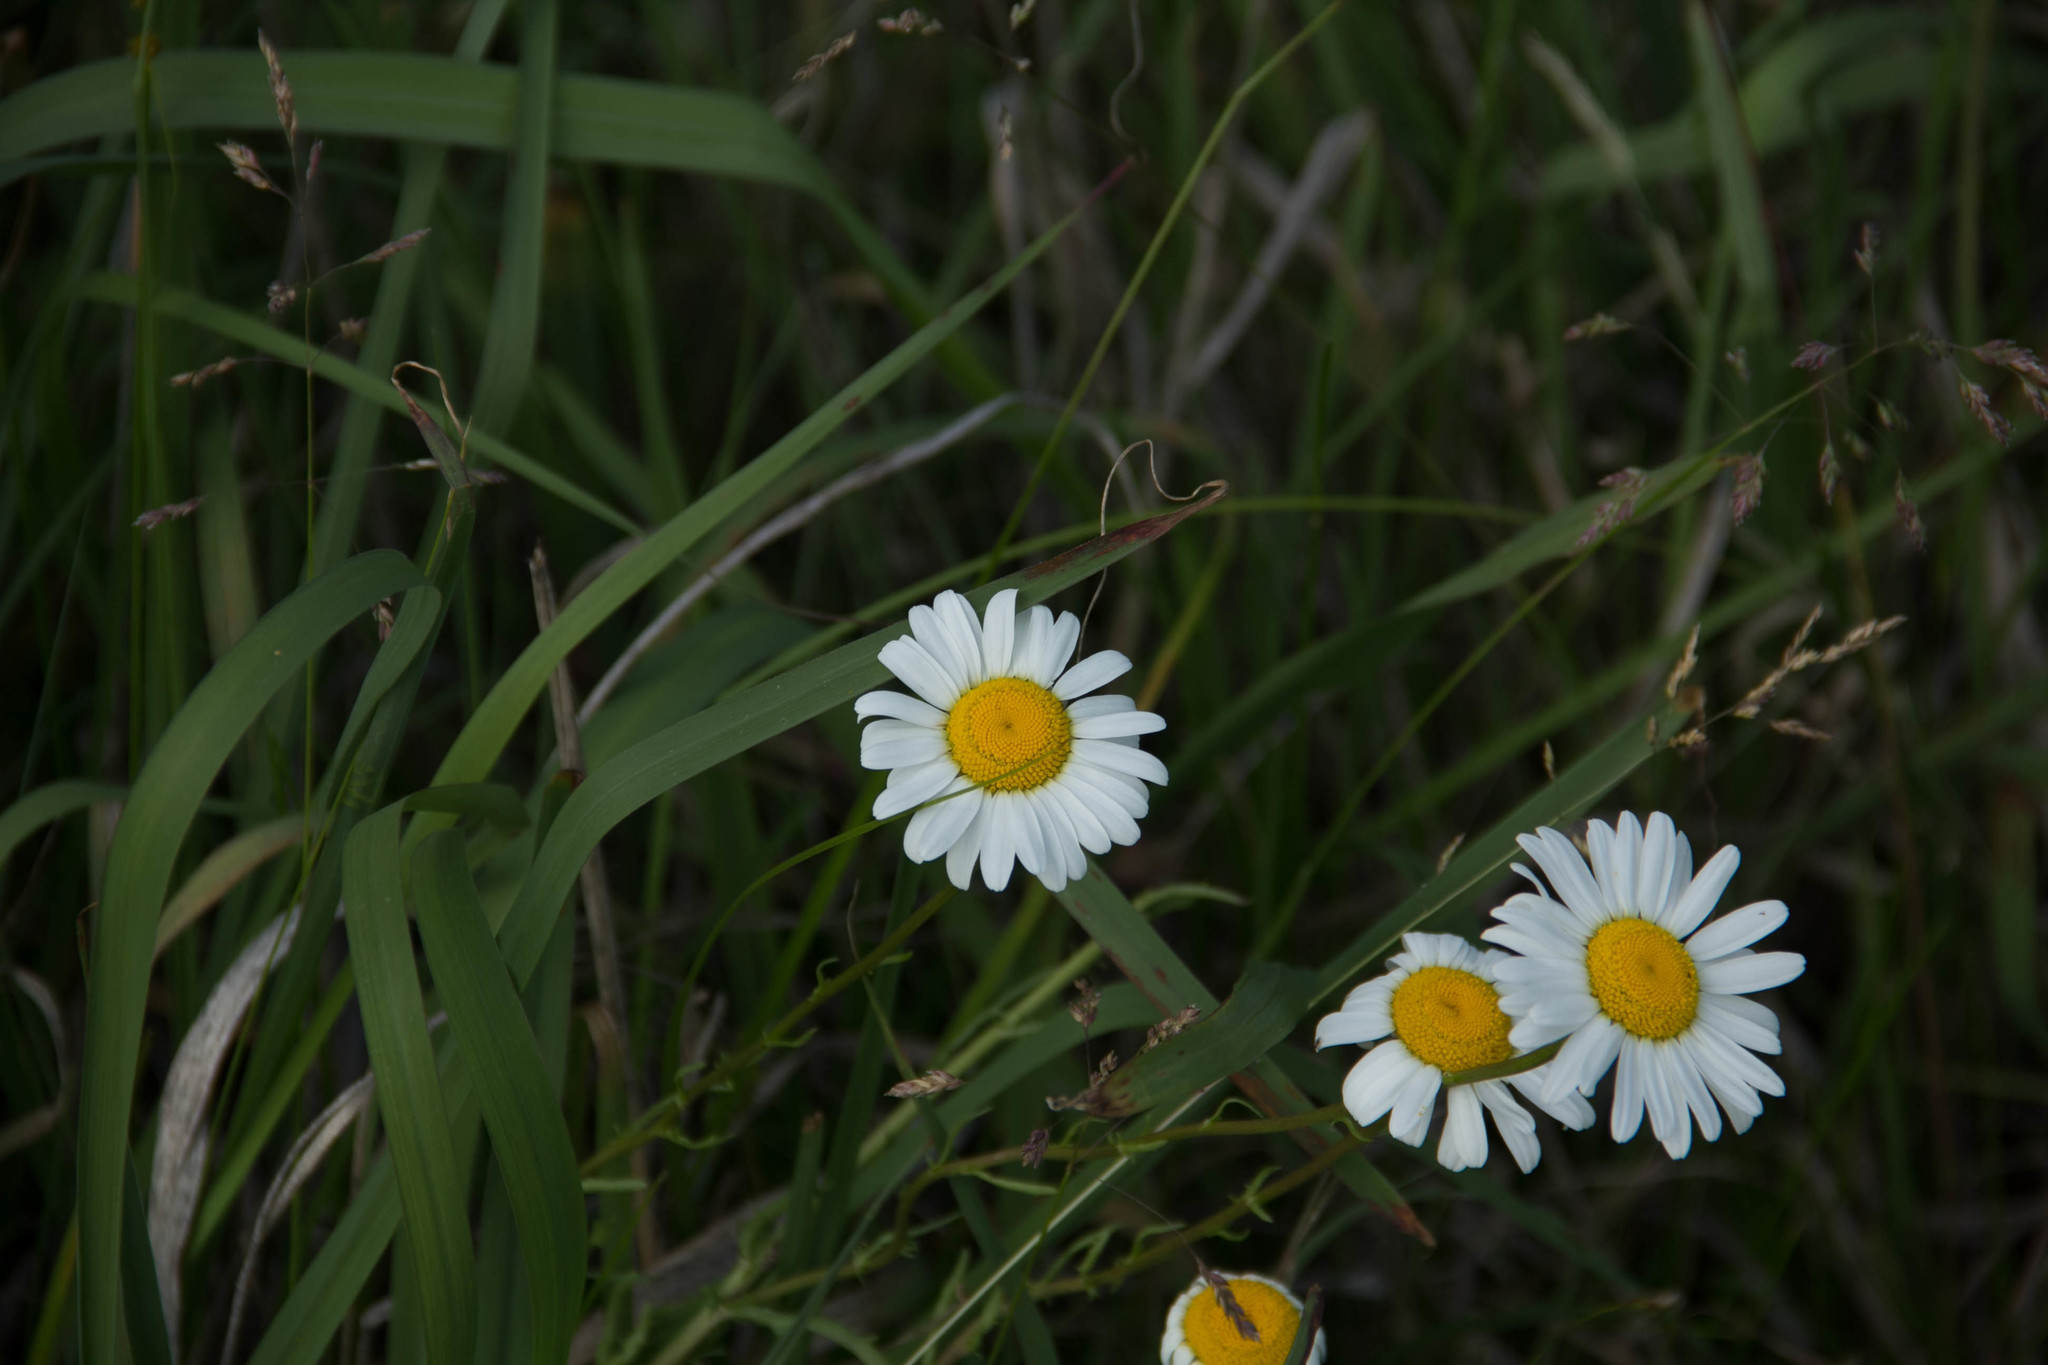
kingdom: Plantae
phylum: Tracheophyta
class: Magnoliopsida
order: Asterales
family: Asteraceae
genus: Leucanthemum
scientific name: Leucanthemum vulgare
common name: Oxeye daisy
